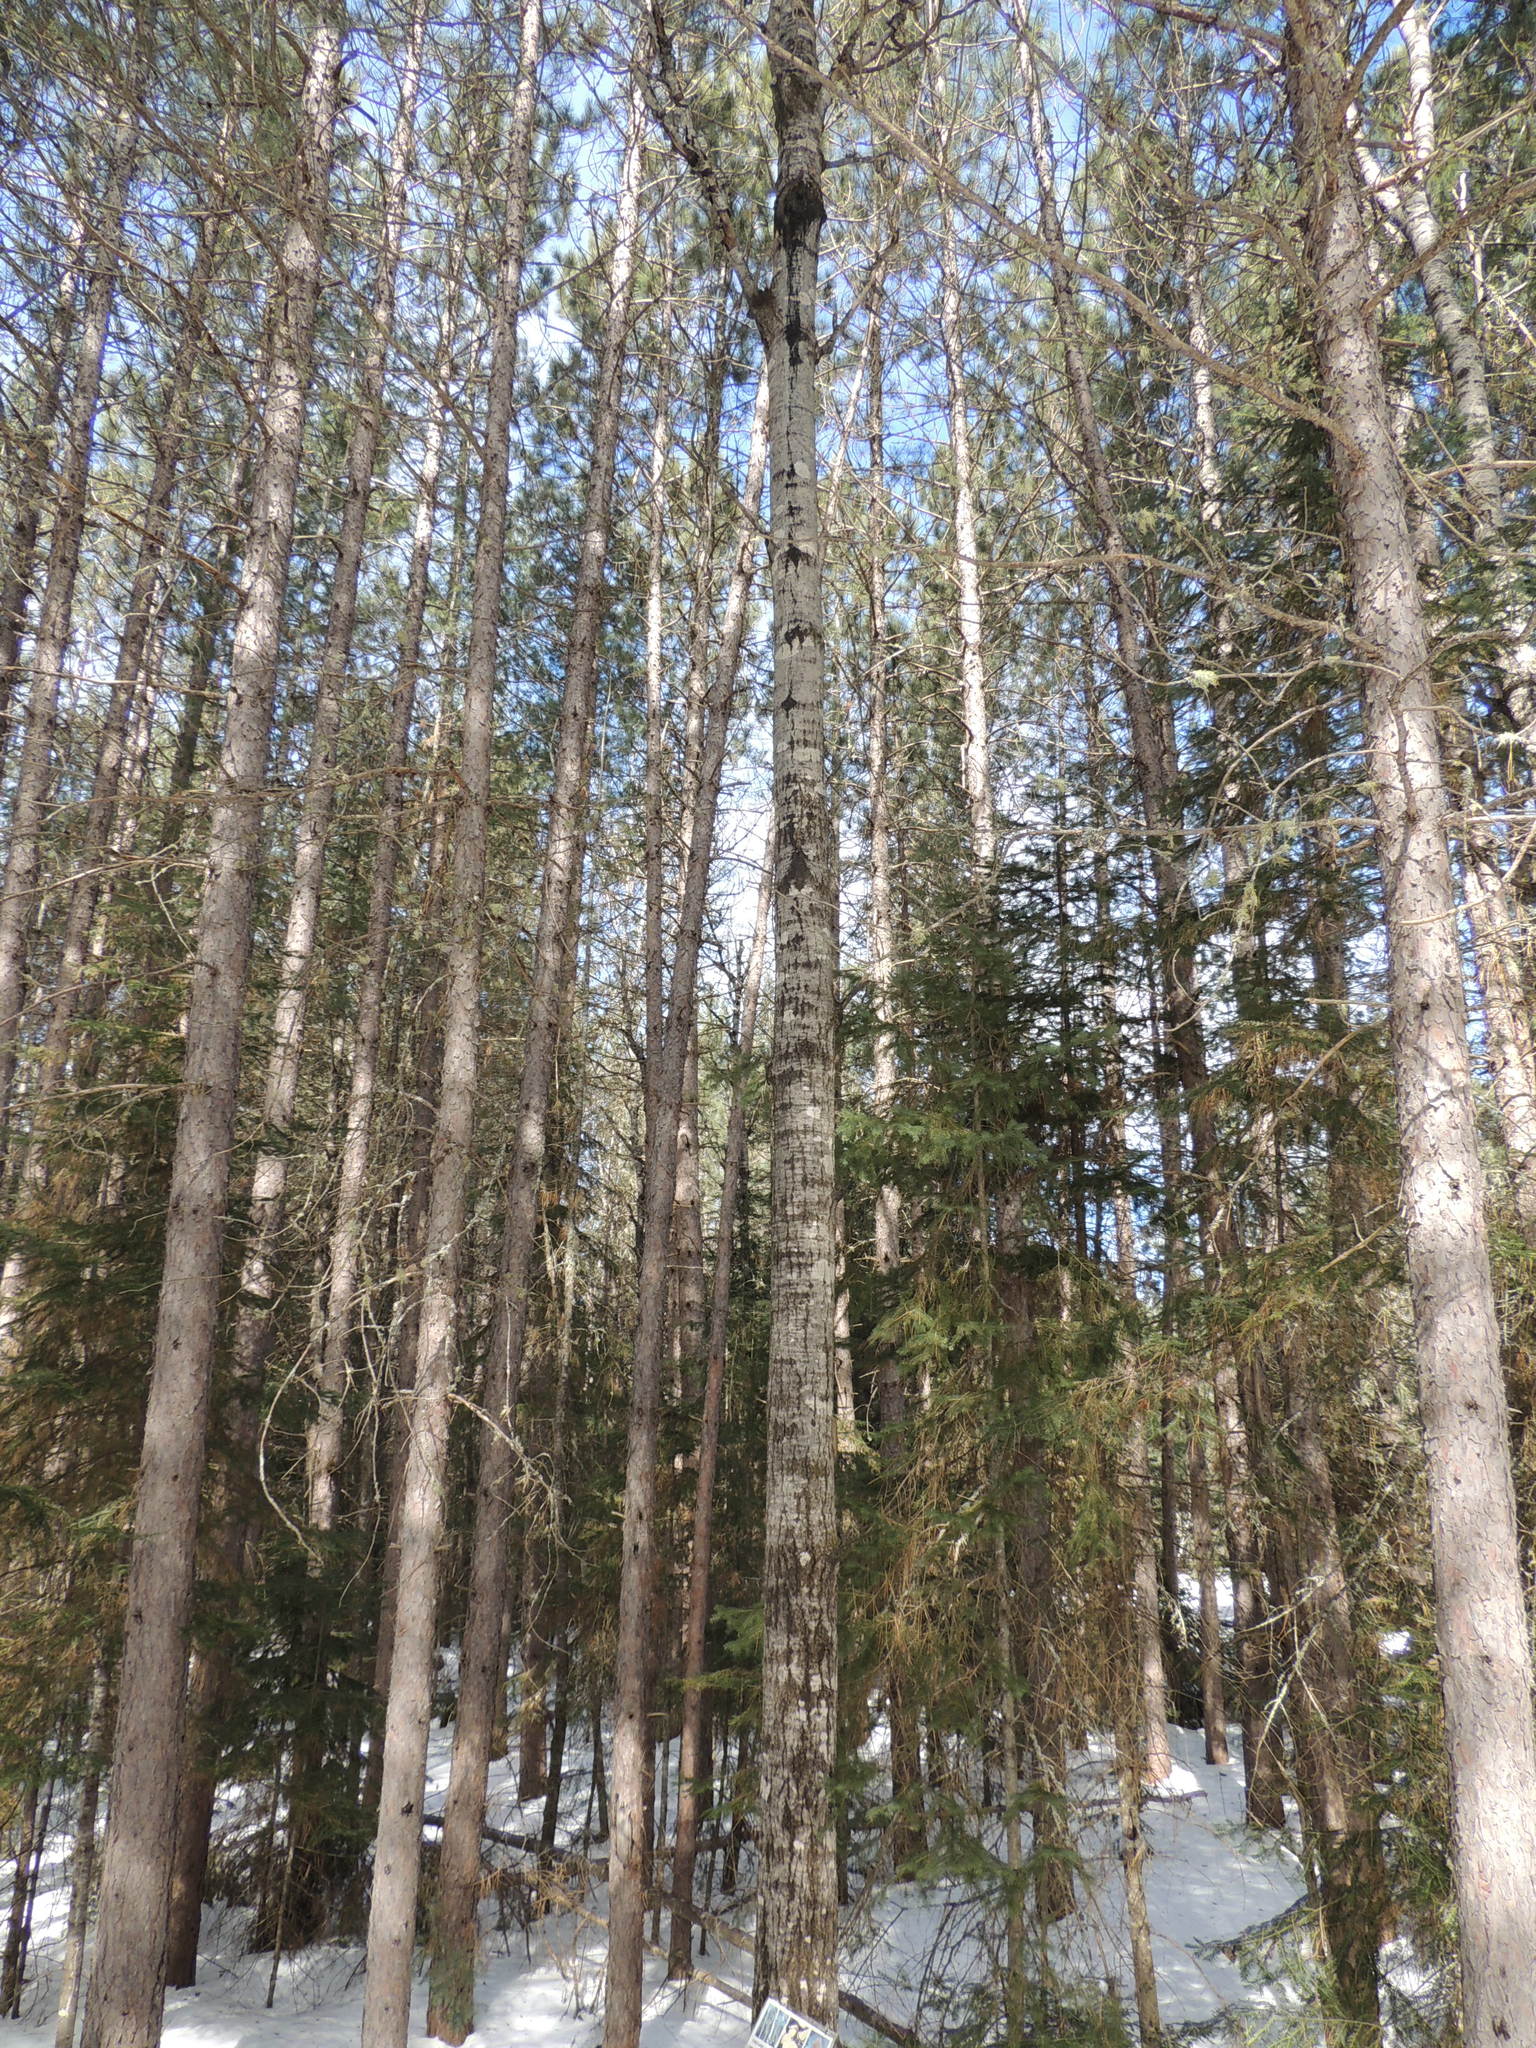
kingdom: Plantae
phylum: Tracheophyta
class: Magnoliopsida
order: Malpighiales
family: Salicaceae
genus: Populus
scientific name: Populus tremuloides
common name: Quaking aspen
